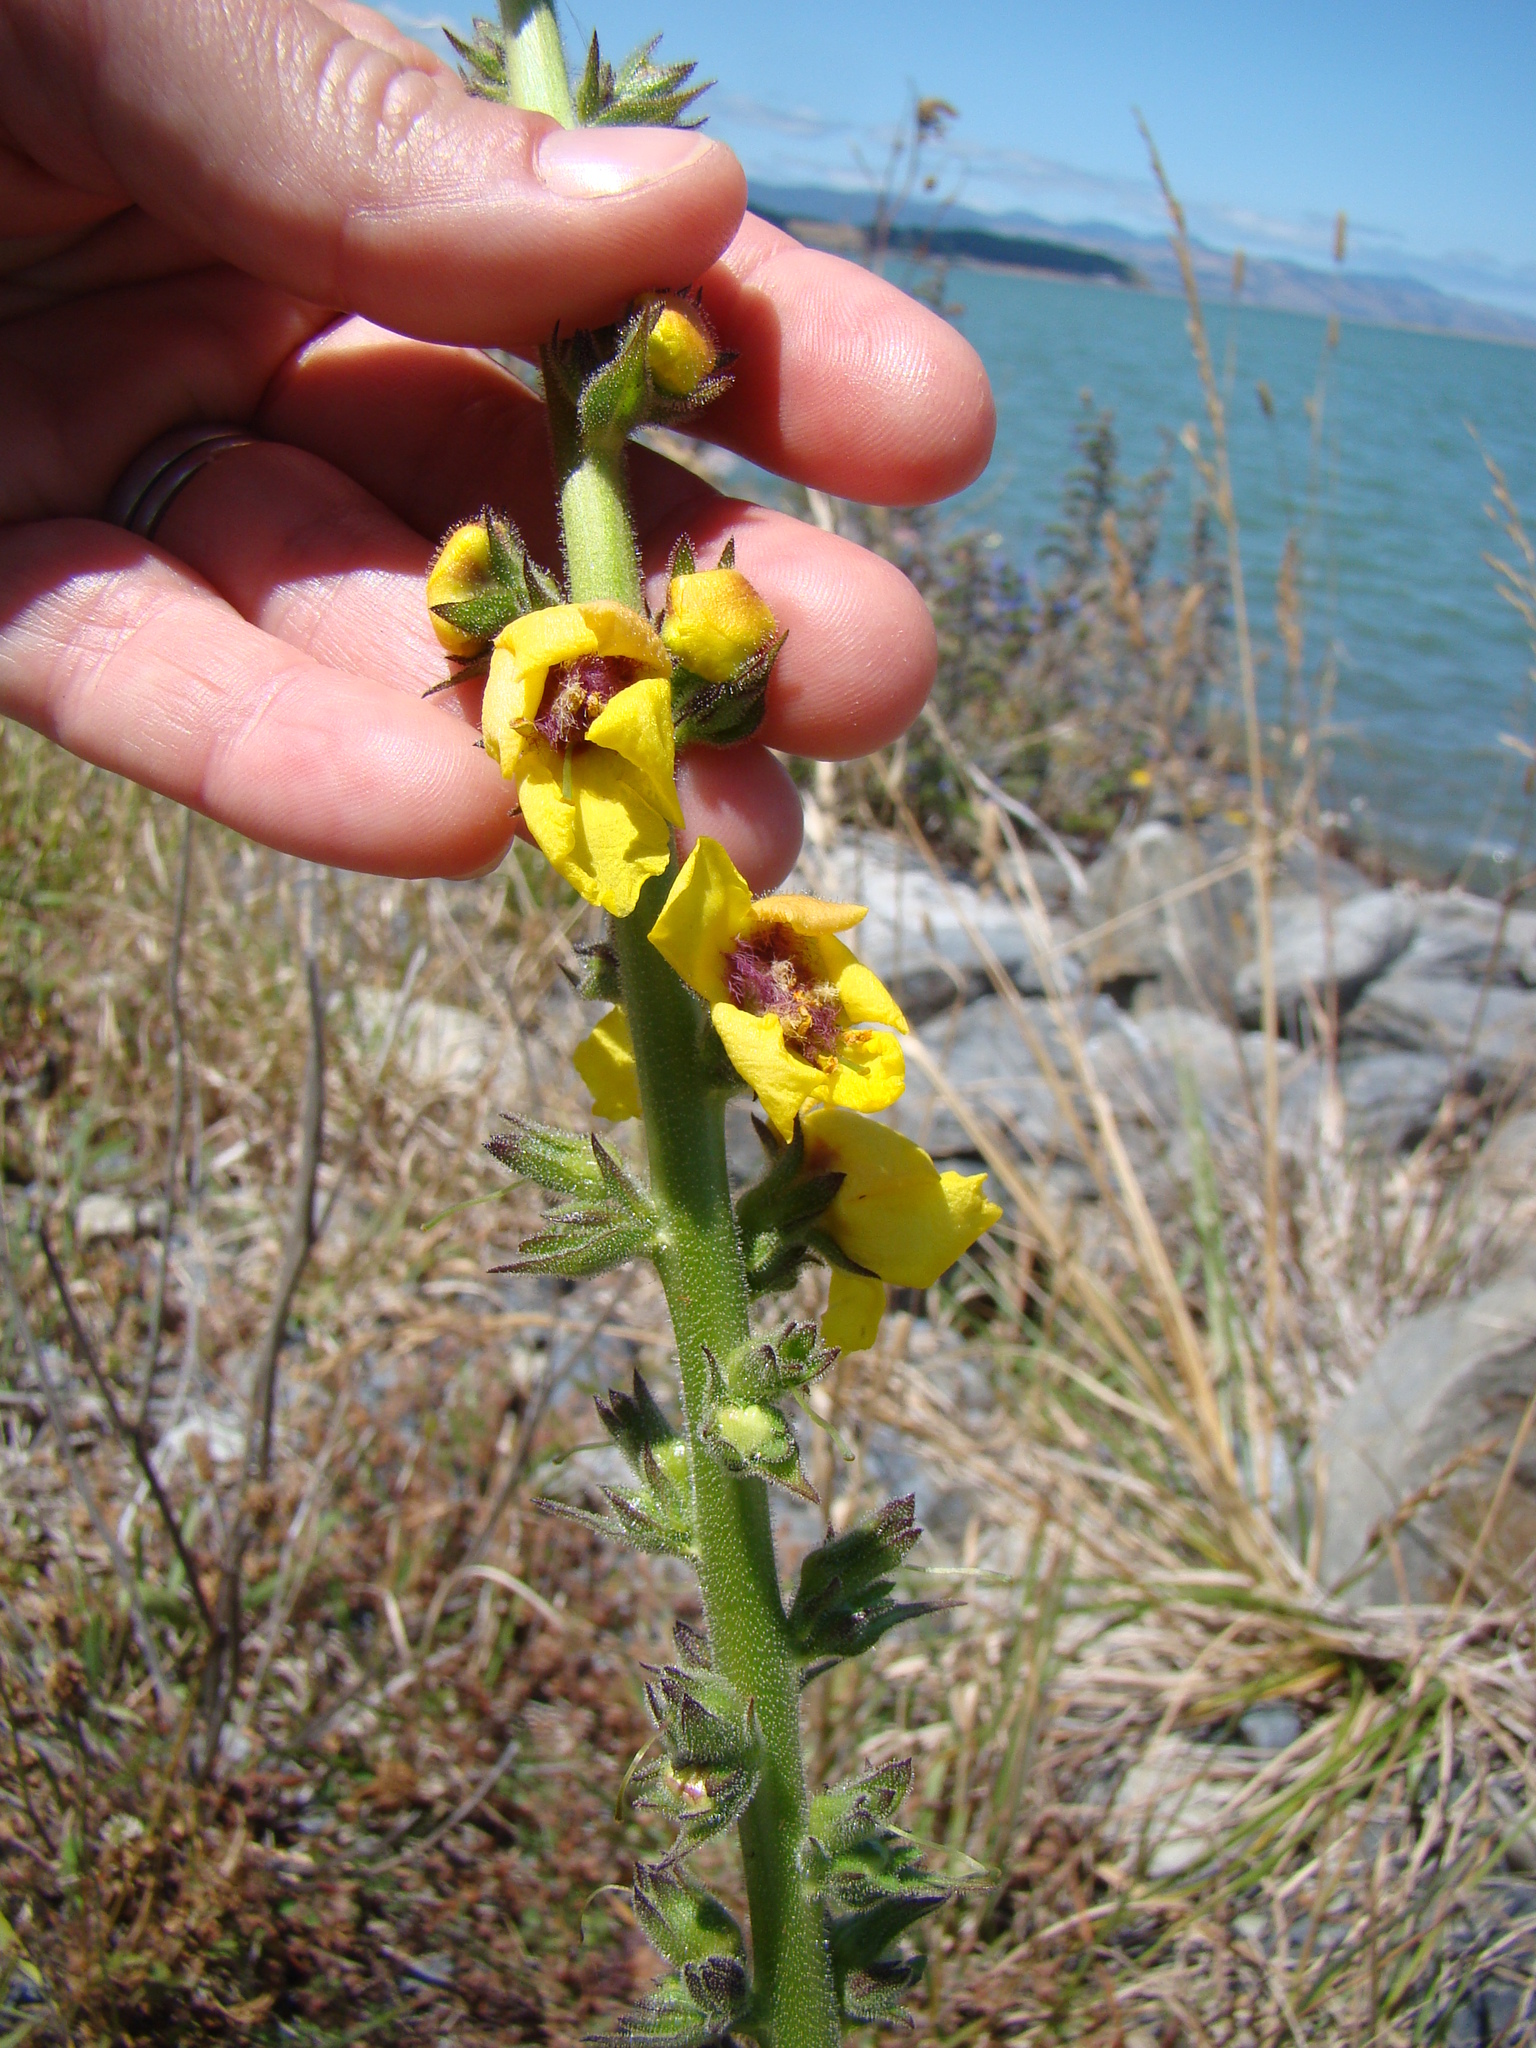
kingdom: Plantae
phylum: Tracheophyta
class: Magnoliopsida
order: Lamiales
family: Scrophulariaceae
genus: Verbascum
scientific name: Verbascum virgatum
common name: Twiggy mullein
